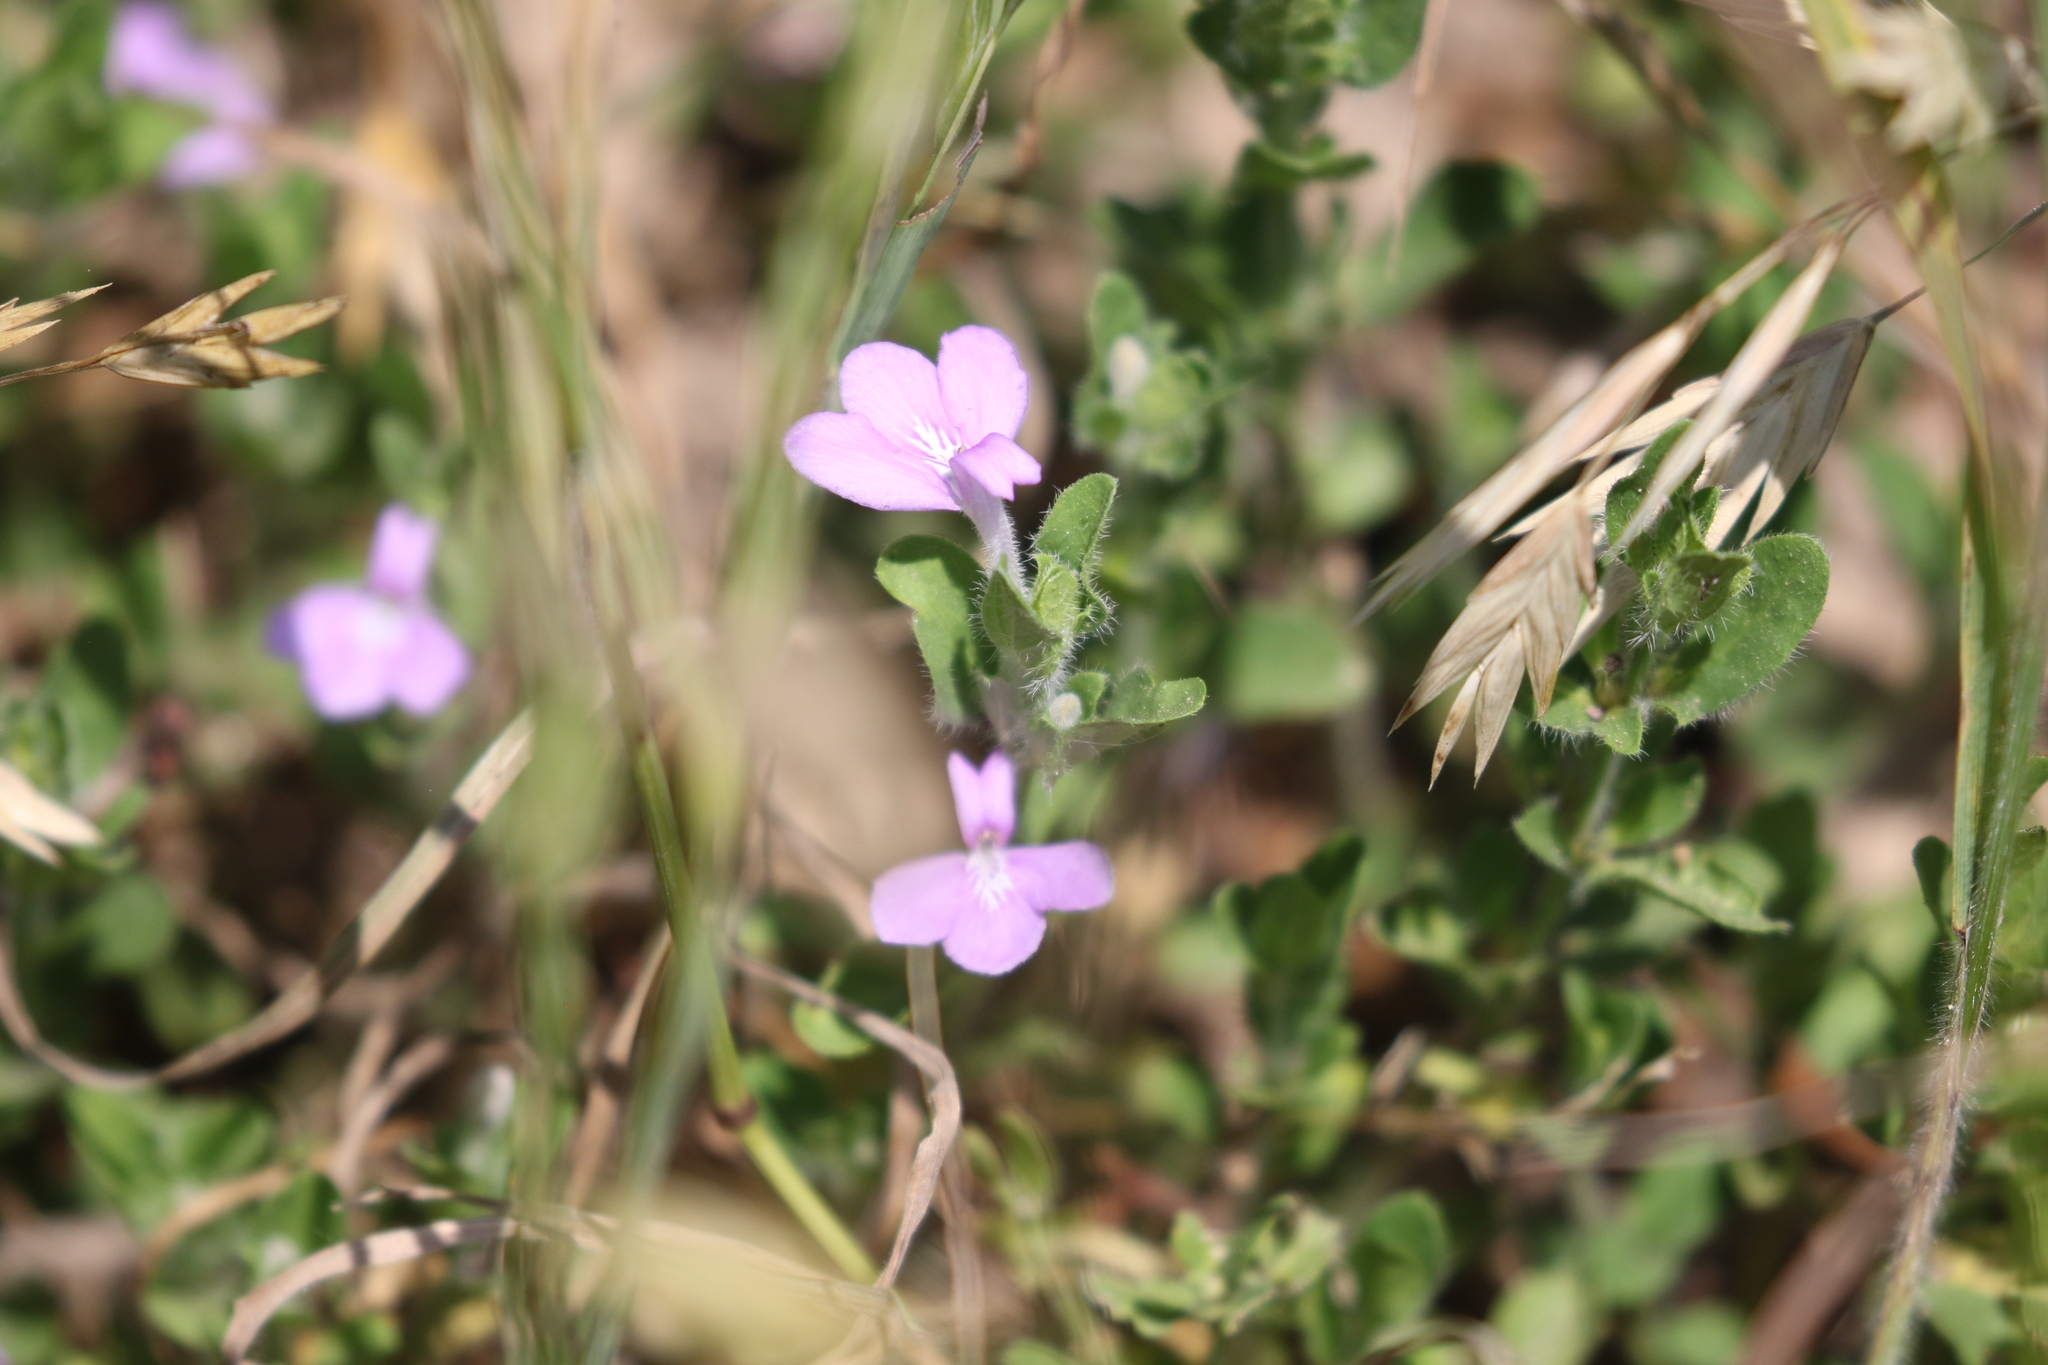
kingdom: Plantae
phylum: Tracheophyta
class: Magnoliopsida
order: Lamiales
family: Acanthaceae
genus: Justicia
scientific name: Justicia pilosella
